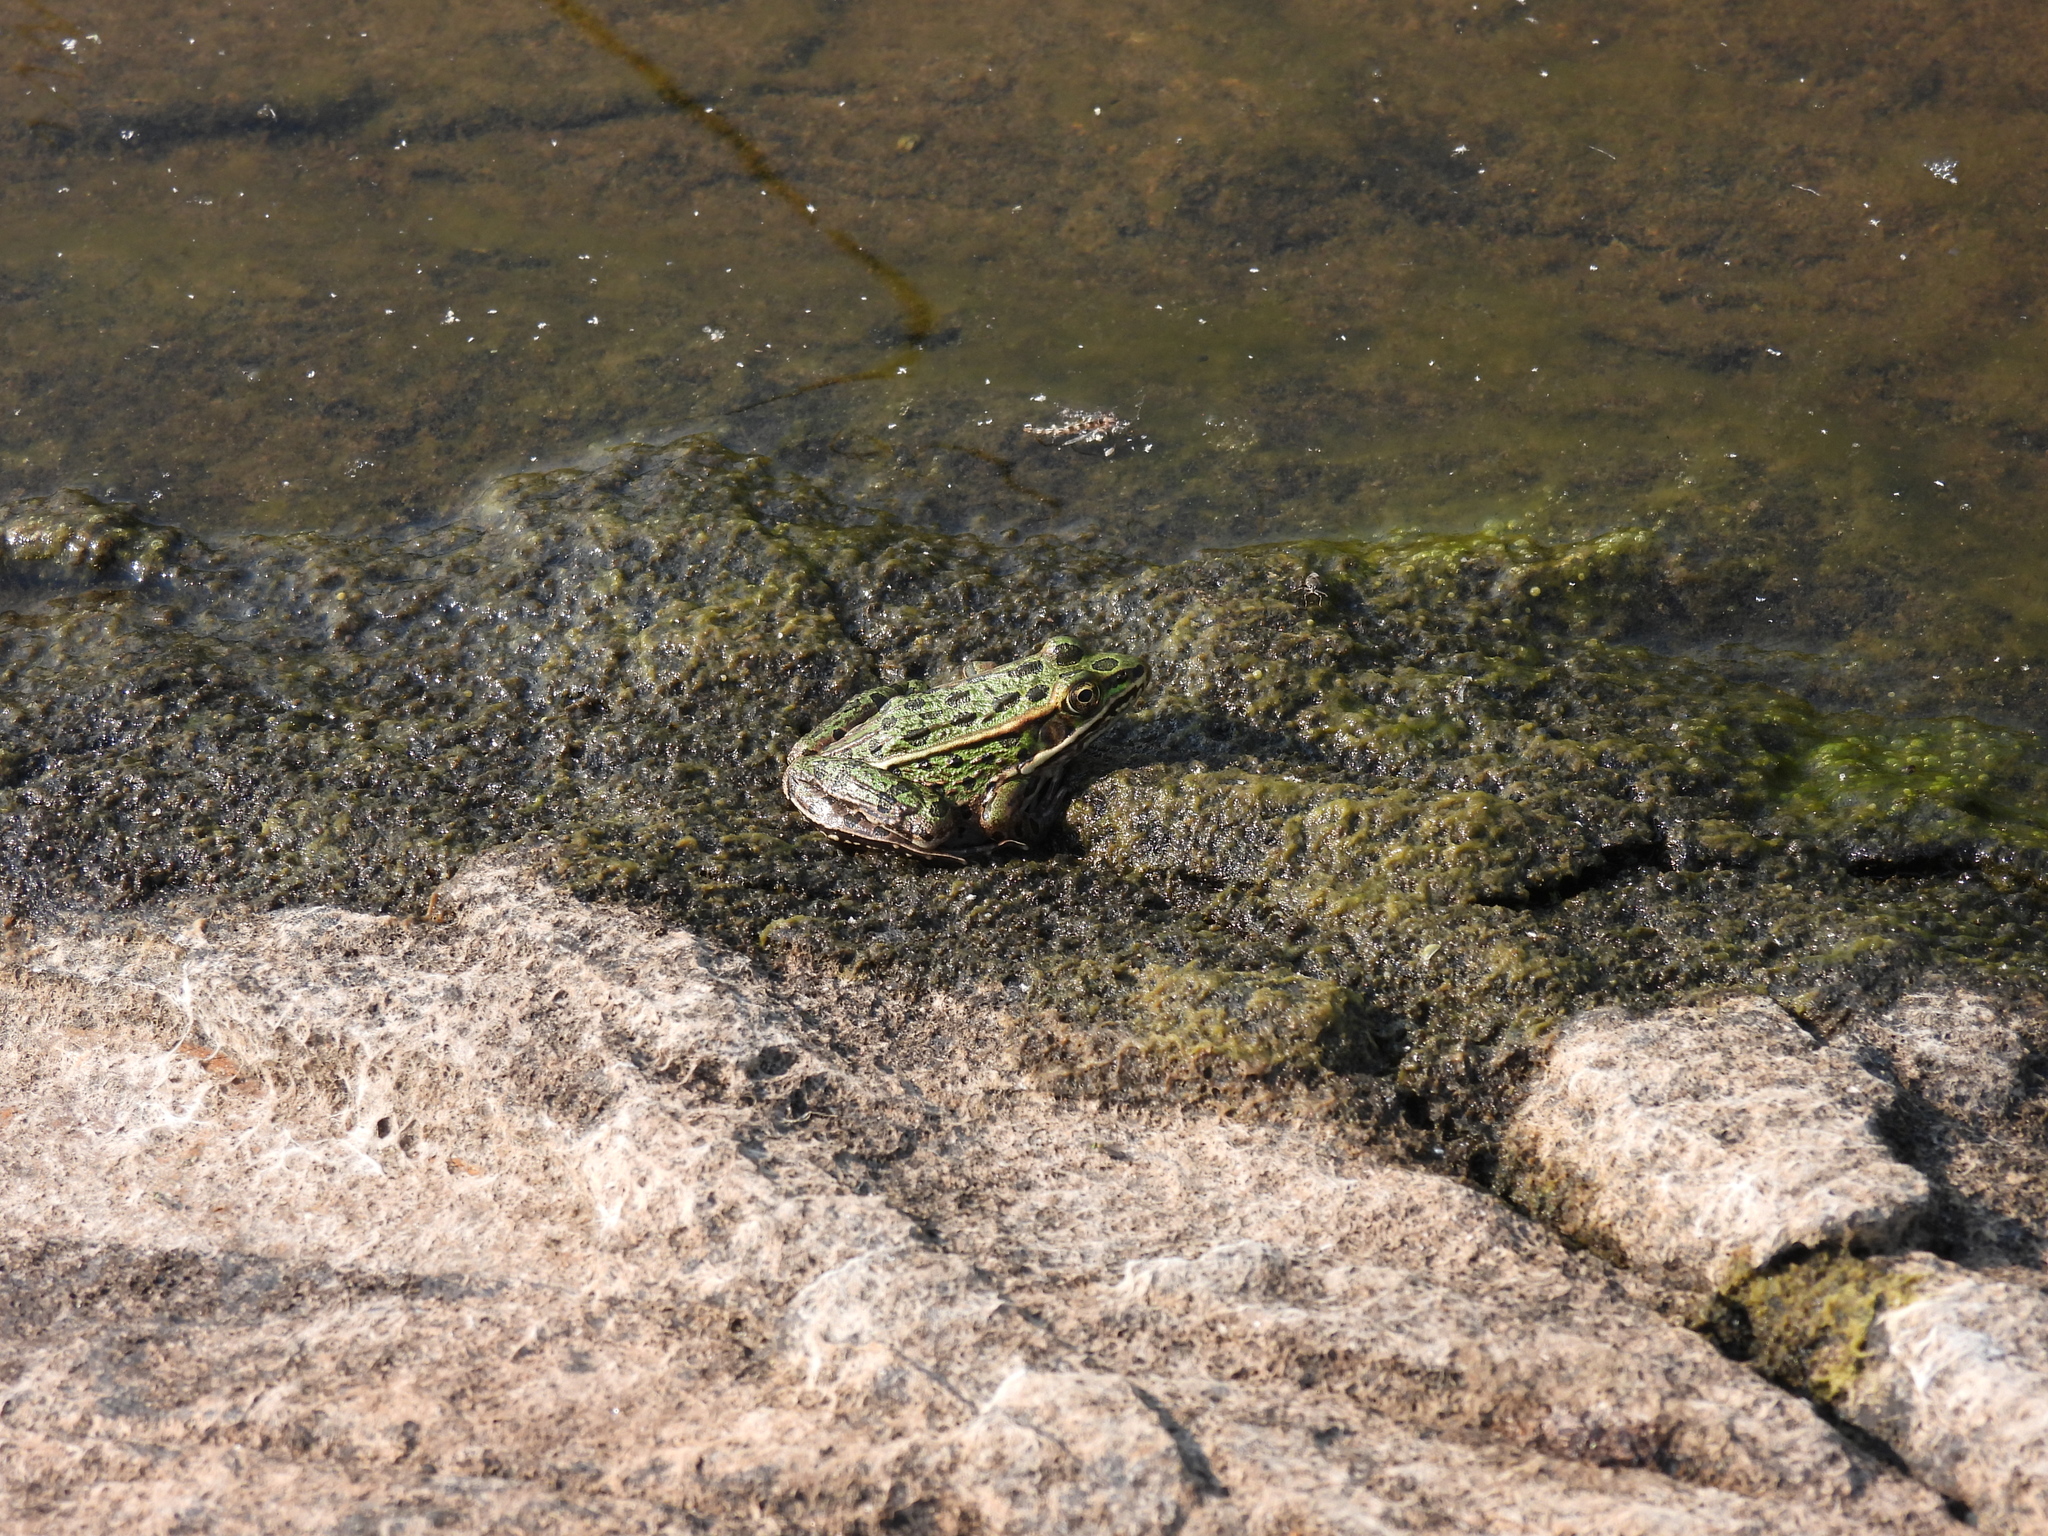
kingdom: Animalia
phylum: Chordata
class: Amphibia
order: Anura
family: Ranidae
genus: Lithobates
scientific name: Lithobates pipiens
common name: Northern leopard frog
